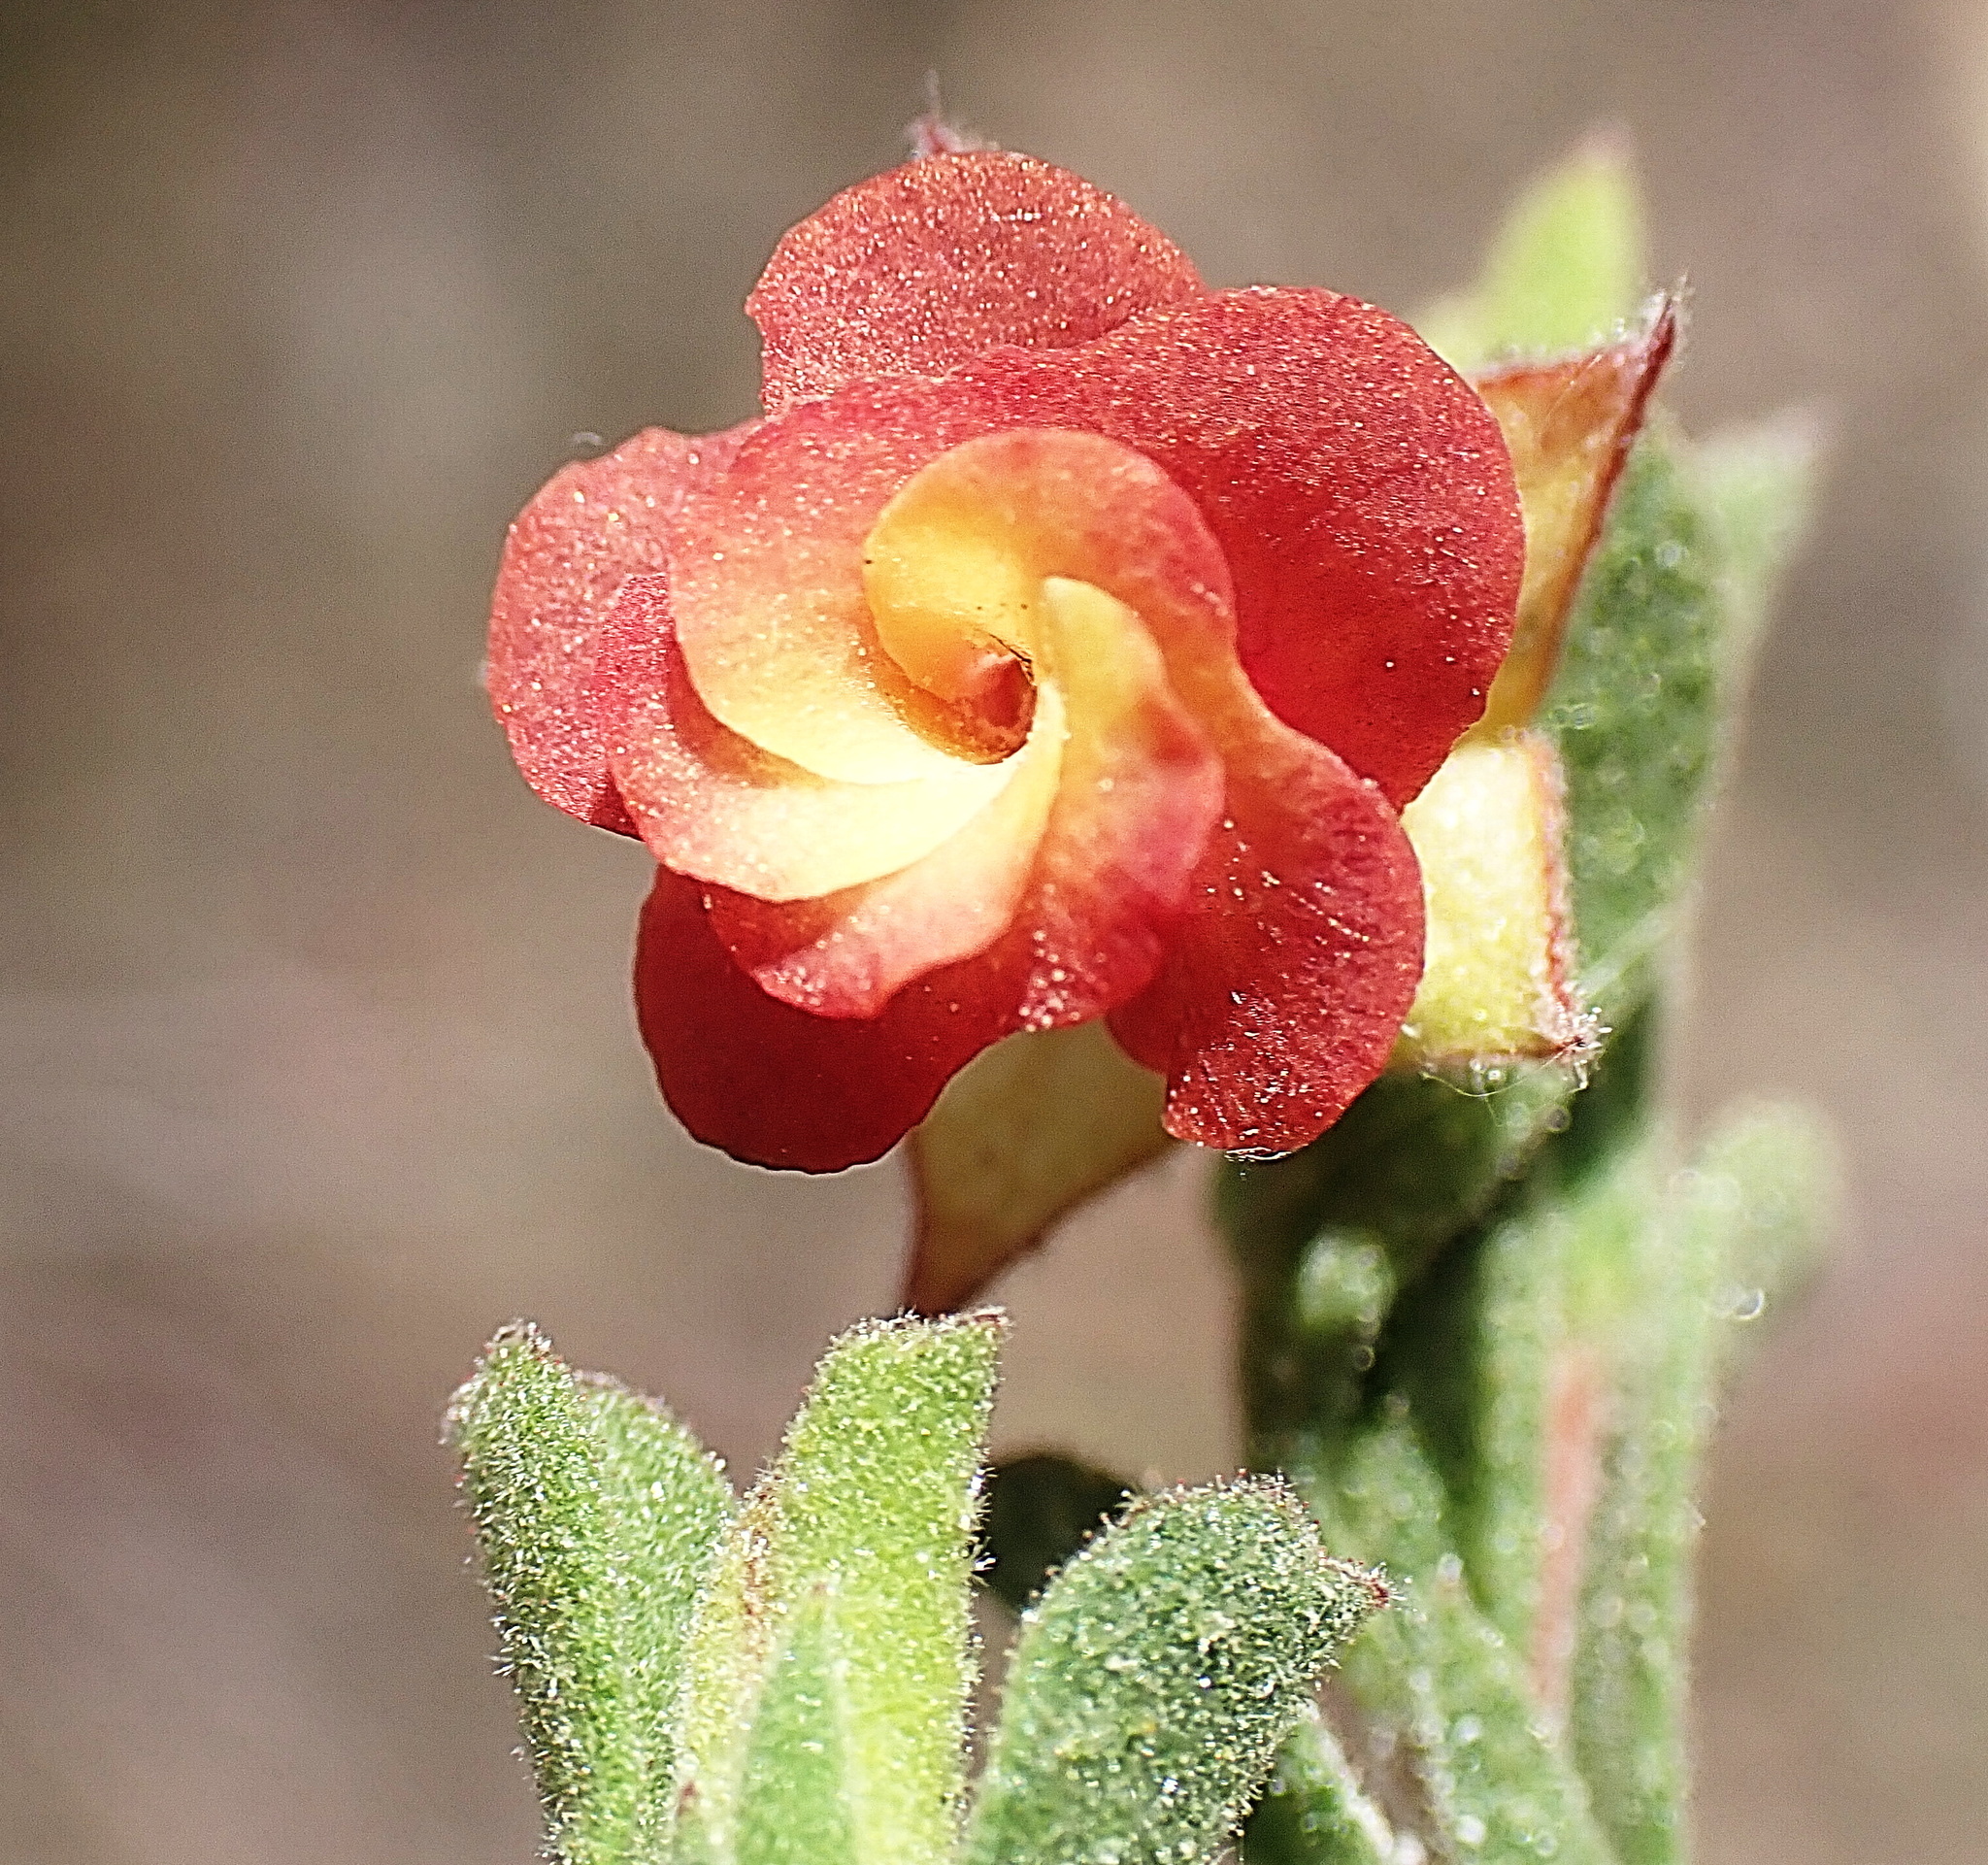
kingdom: Plantae
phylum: Tracheophyta
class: Magnoliopsida
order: Malvales
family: Malvaceae
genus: Hermannia
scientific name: Hermannia flammula
